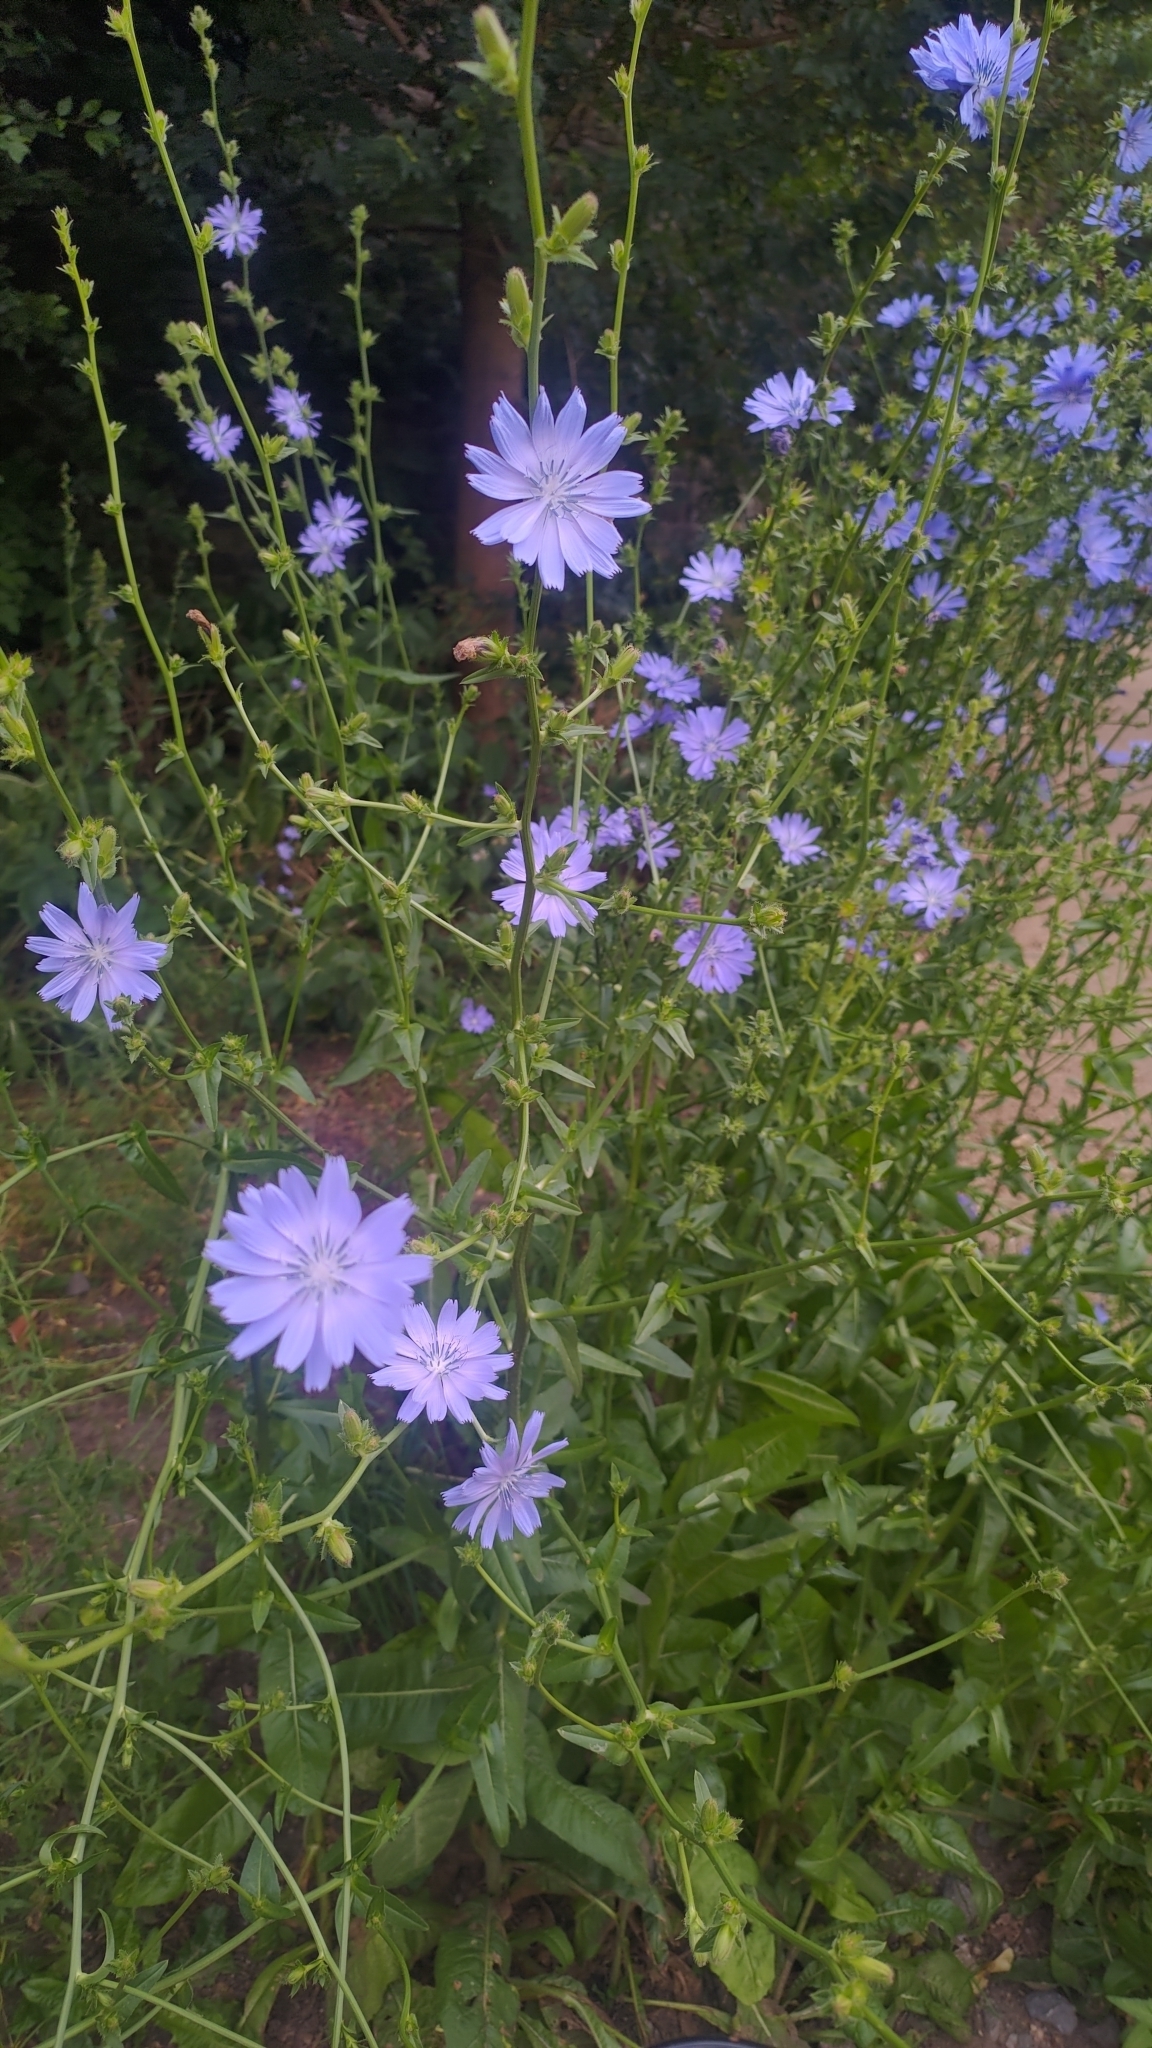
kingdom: Plantae
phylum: Tracheophyta
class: Magnoliopsida
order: Asterales
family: Asteraceae
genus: Cichorium
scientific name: Cichorium intybus
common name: Chicory
